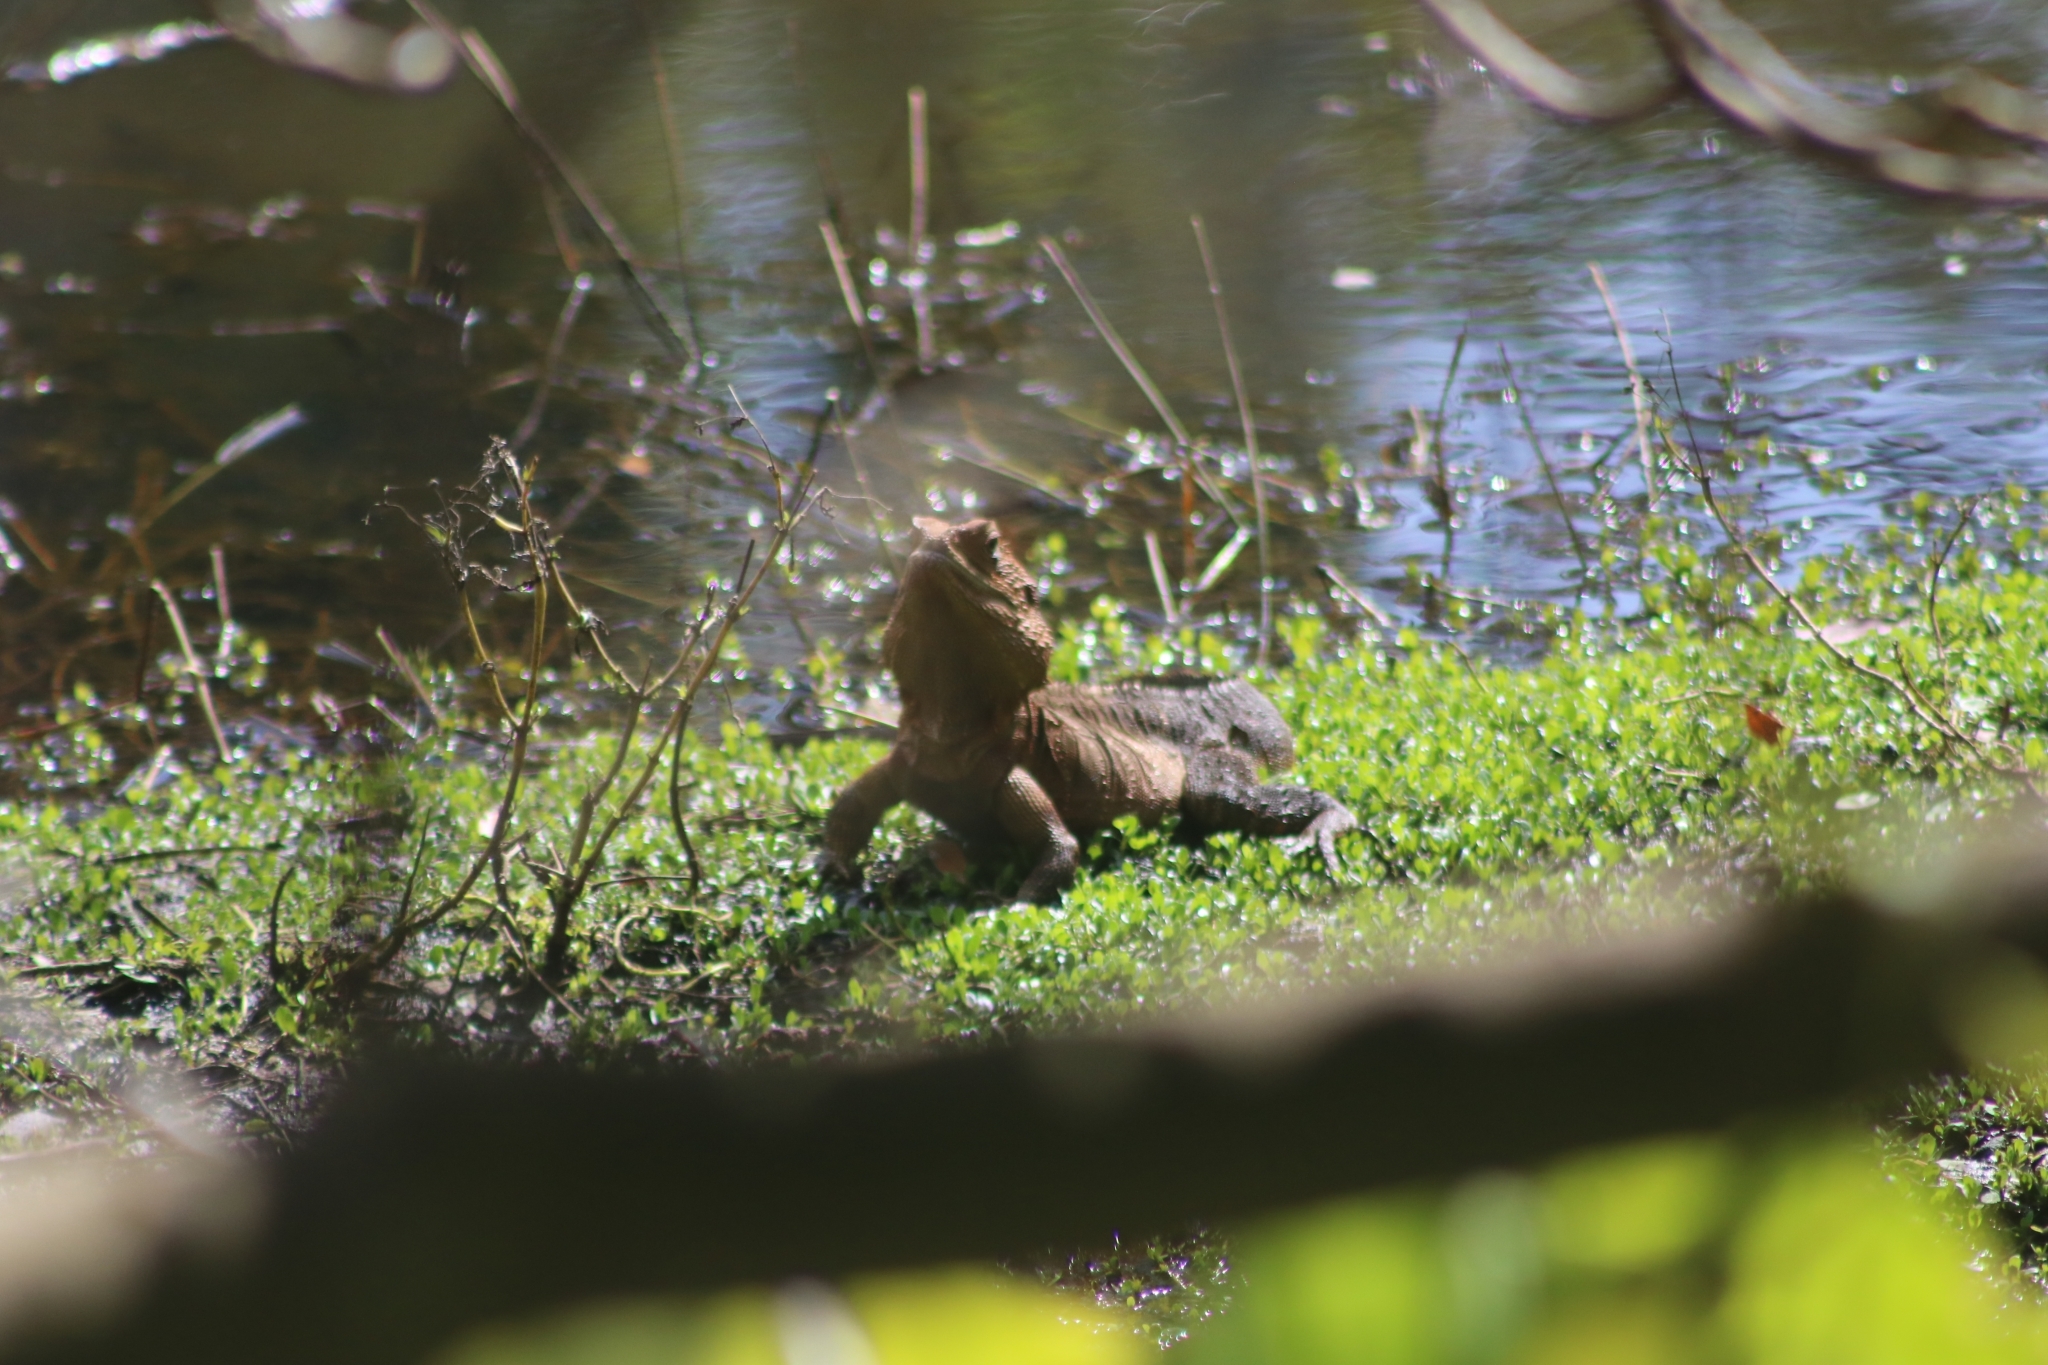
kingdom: Animalia
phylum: Chordata
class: Squamata
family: Agamidae
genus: Intellagama
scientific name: Intellagama lesueurii
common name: Eastern water dragon
